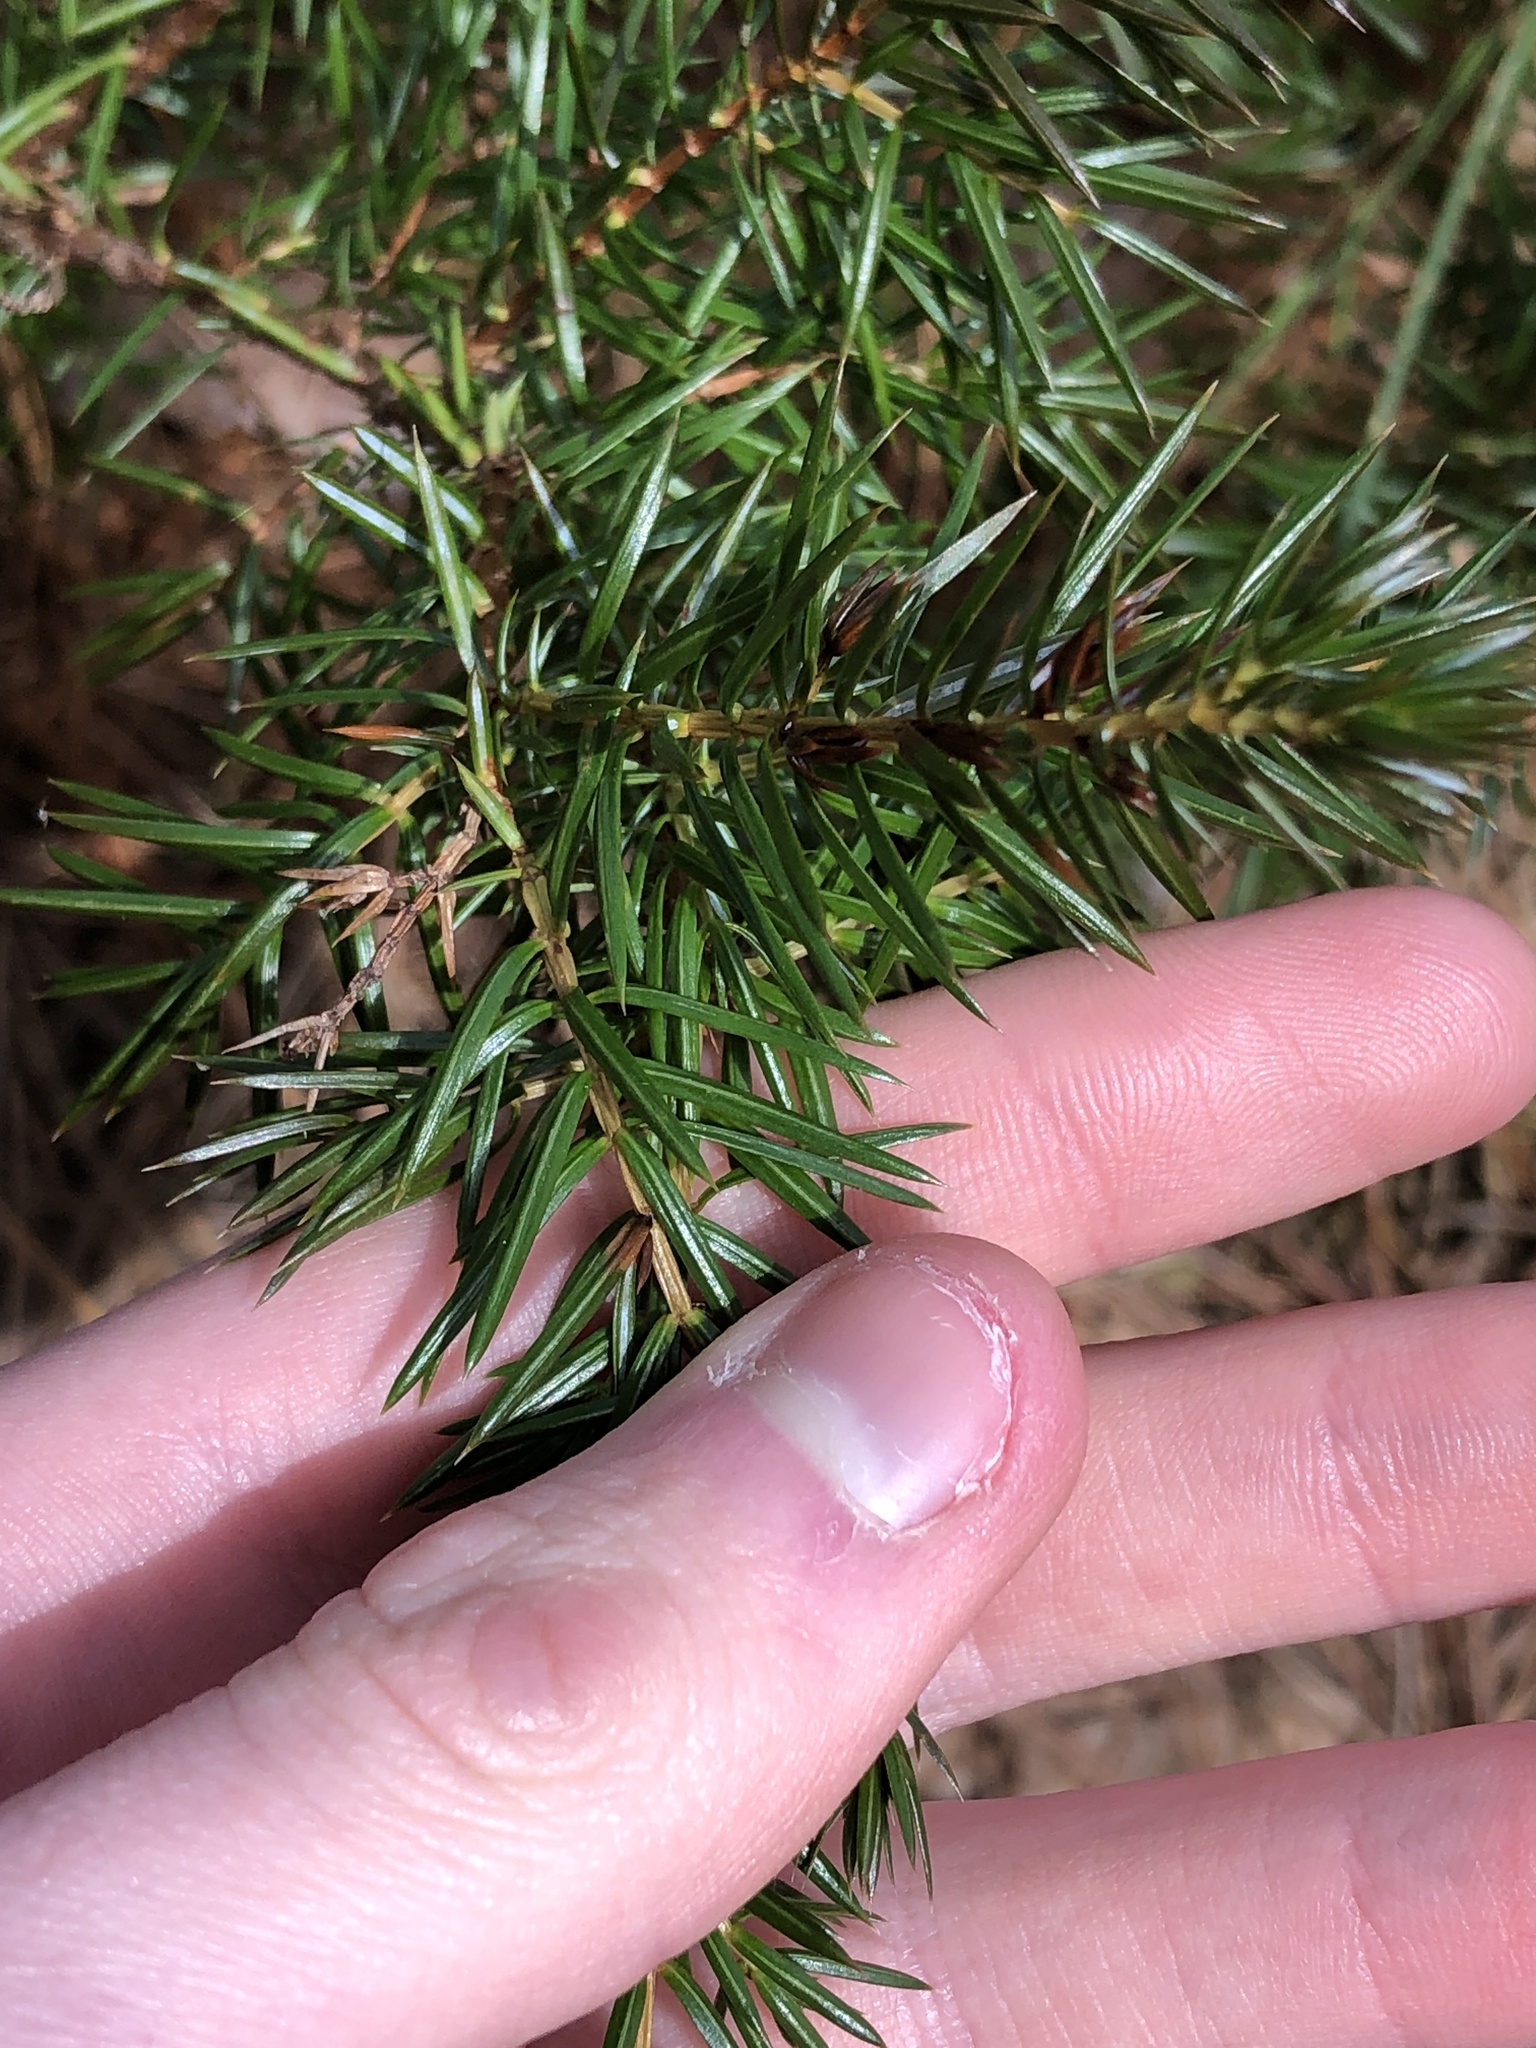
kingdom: Plantae
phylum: Tracheophyta
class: Pinopsida
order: Pinales
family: Cupressaceae
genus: Juniperus
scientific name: Juniperus communis
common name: Common juniper
